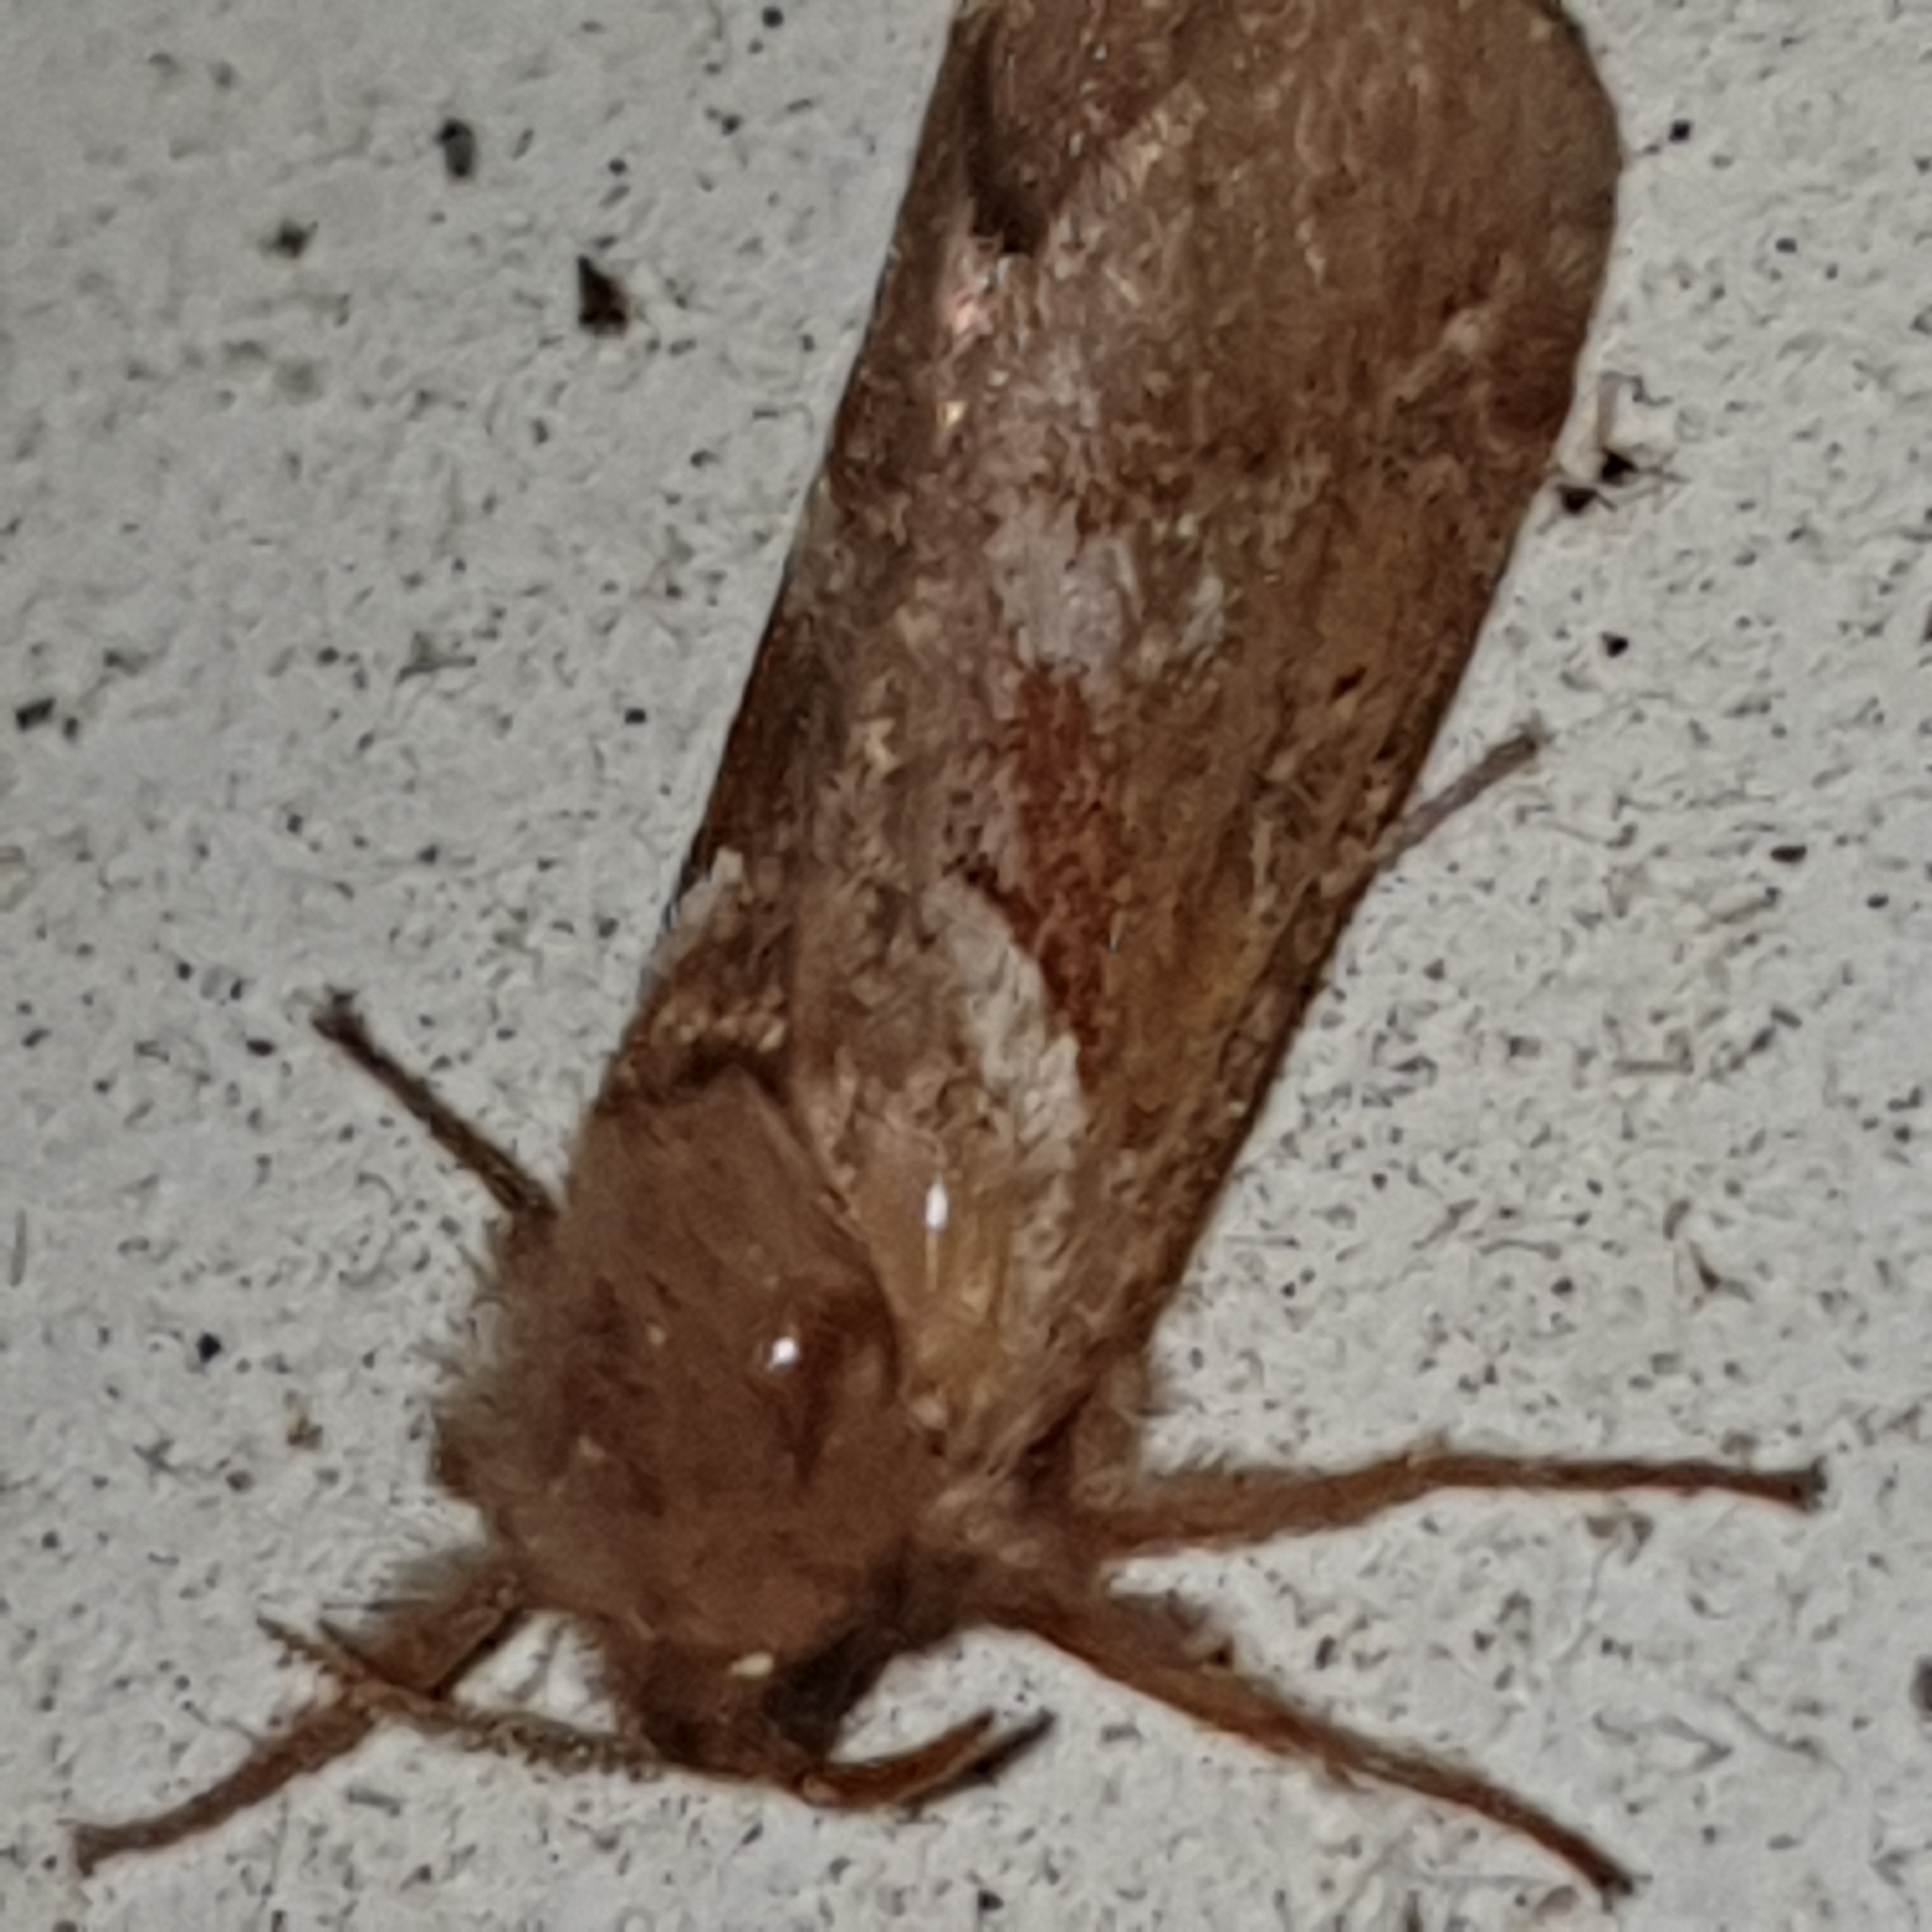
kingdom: Animalia
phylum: Arthropoda
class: Insecta
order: Lepidoptera
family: Hepialidae
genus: Triodia
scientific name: Triodia sylvina
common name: Orange swift
